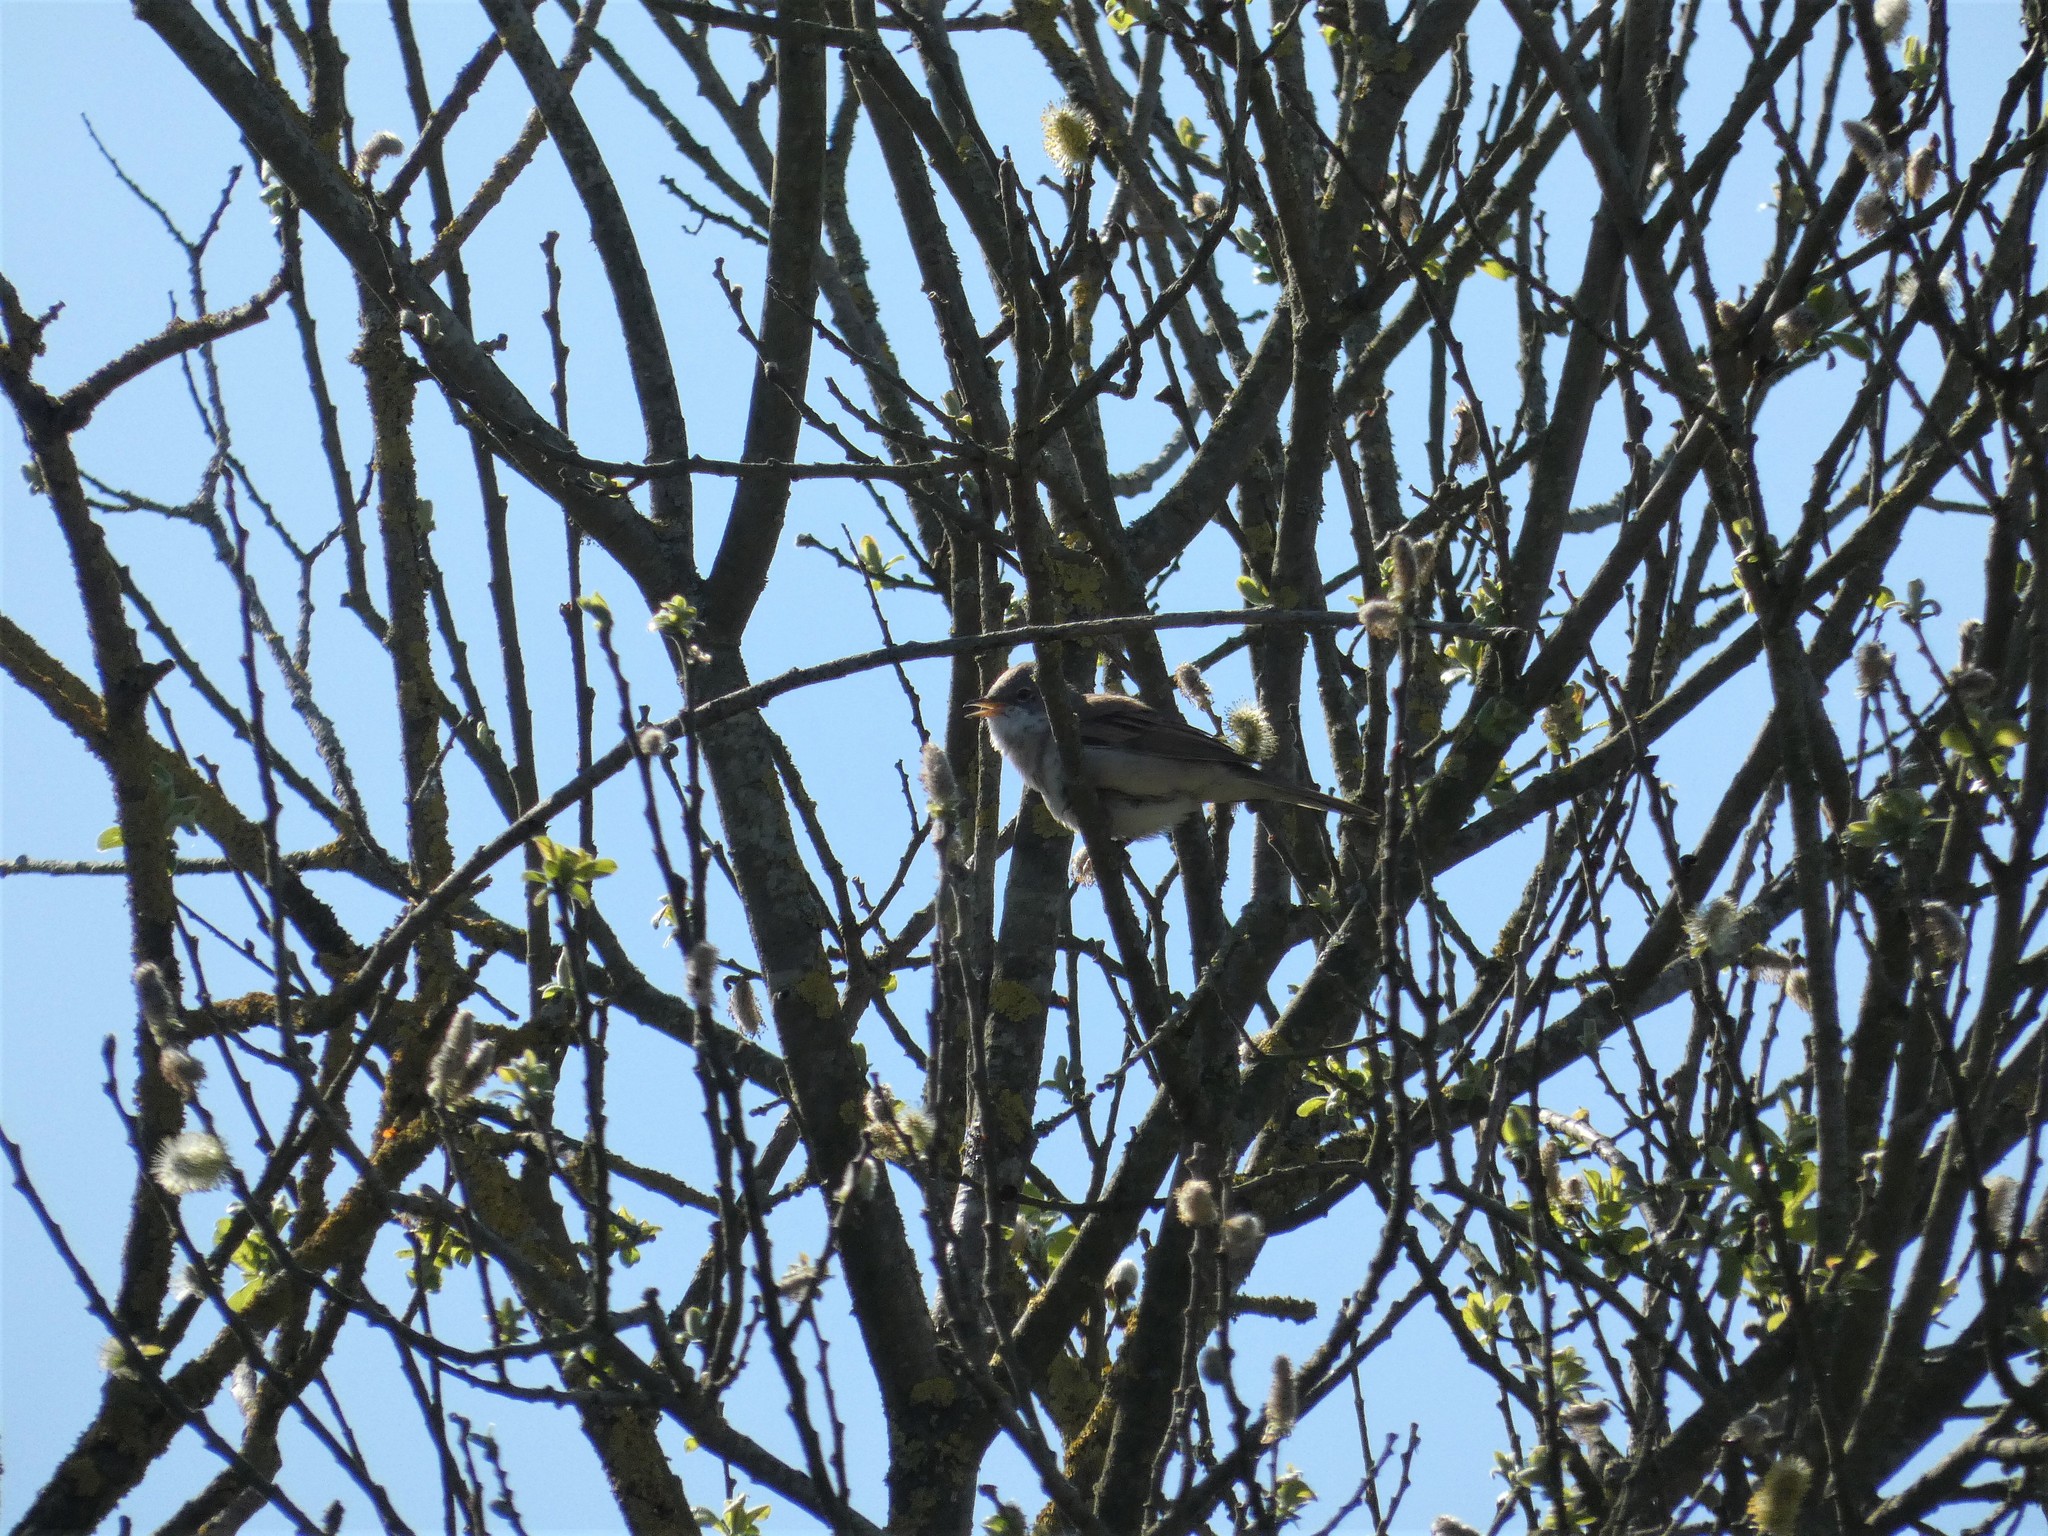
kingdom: Animalia
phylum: Chordata
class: Aves
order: Passeriformes
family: Sylviidae
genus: Sylvia
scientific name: Sylvia communis
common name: Common whitethroat
